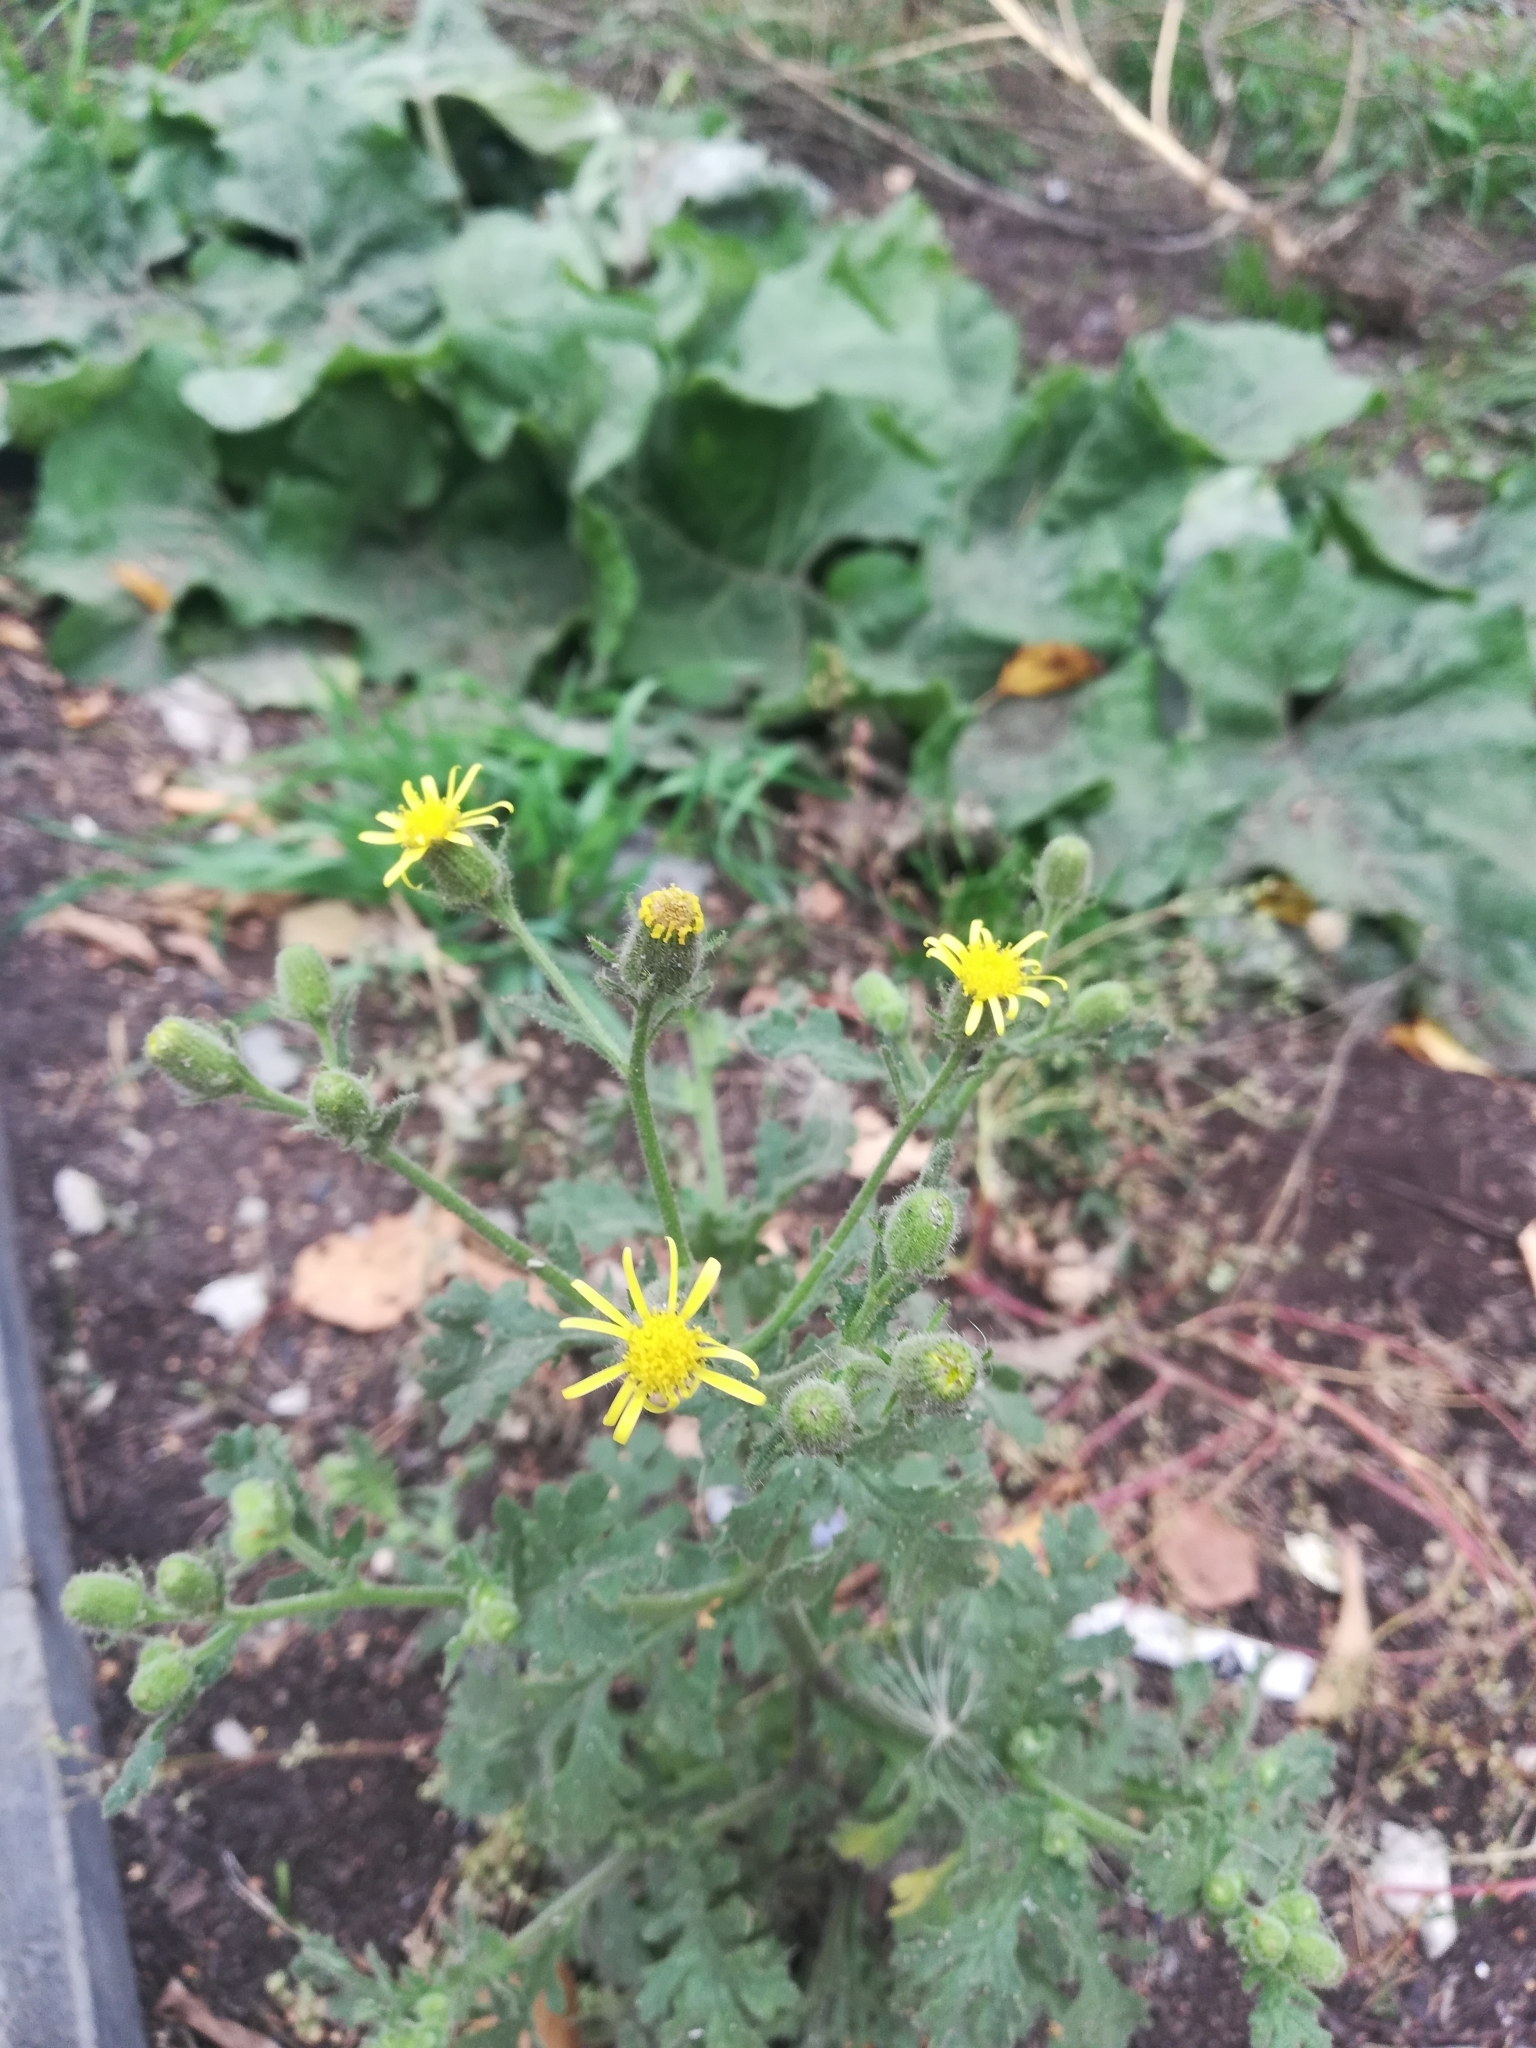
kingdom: Plantae
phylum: Tracheophyta
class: Magnoliopsida
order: Asterales
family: Asteraceae
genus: Senecio
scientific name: Senecio viscosus
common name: Sticky groundsel
